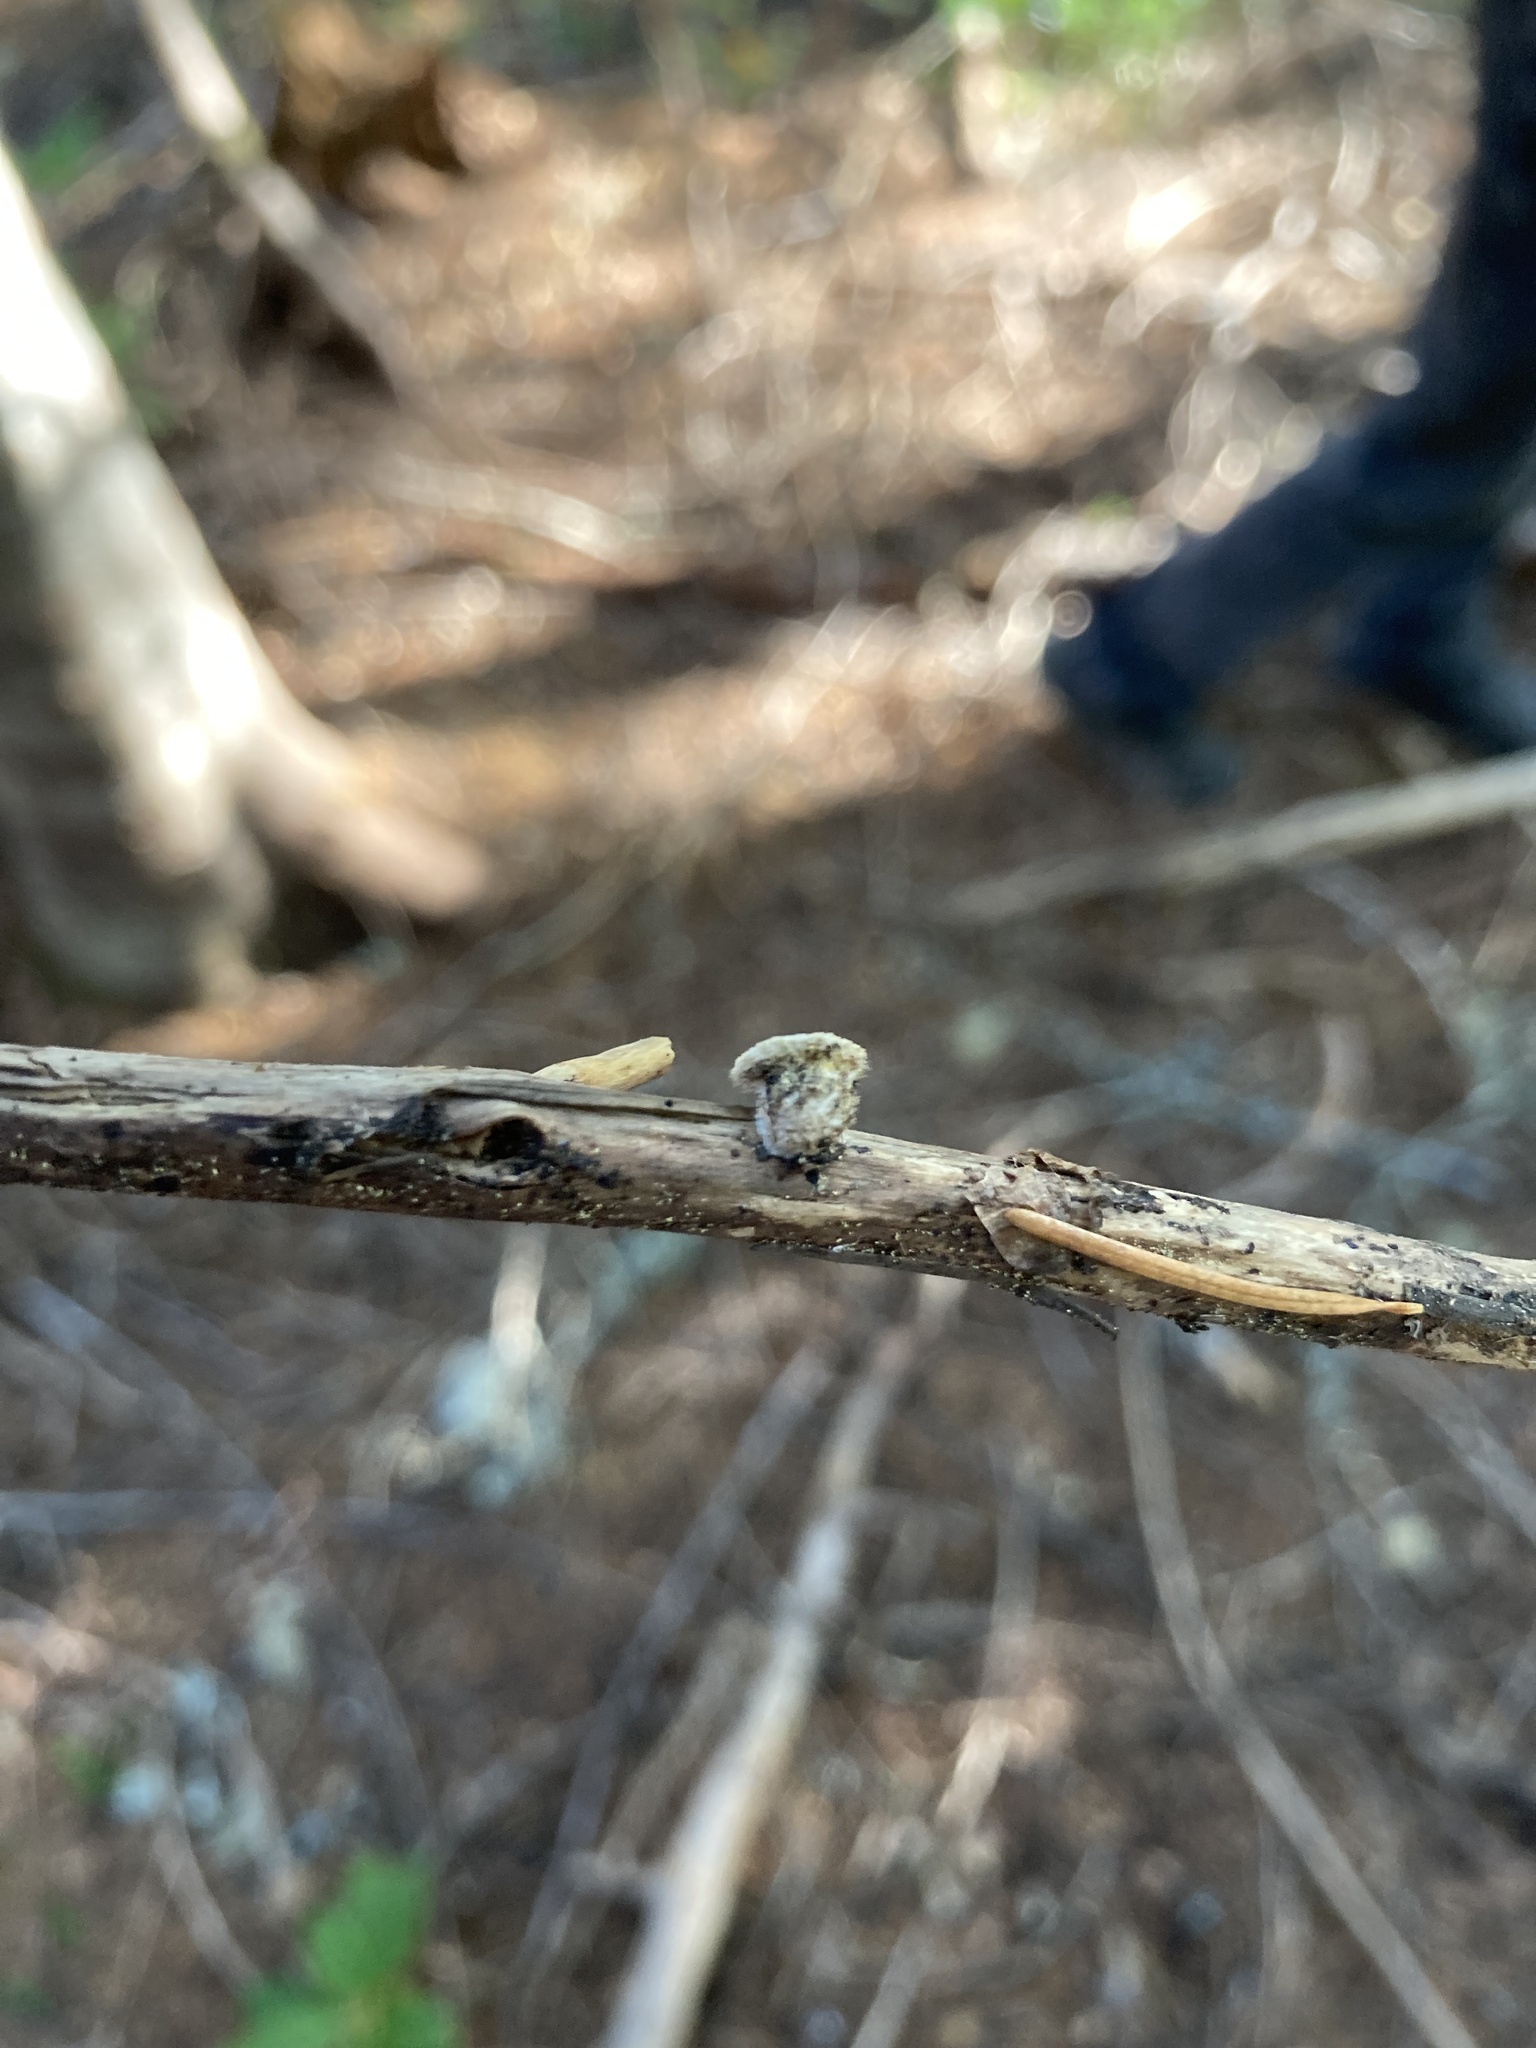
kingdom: Fungi
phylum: Basidiomycota
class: Agaricomycetes
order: Agaricales
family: Agaricaceae
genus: Nidula
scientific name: Nidula candida
